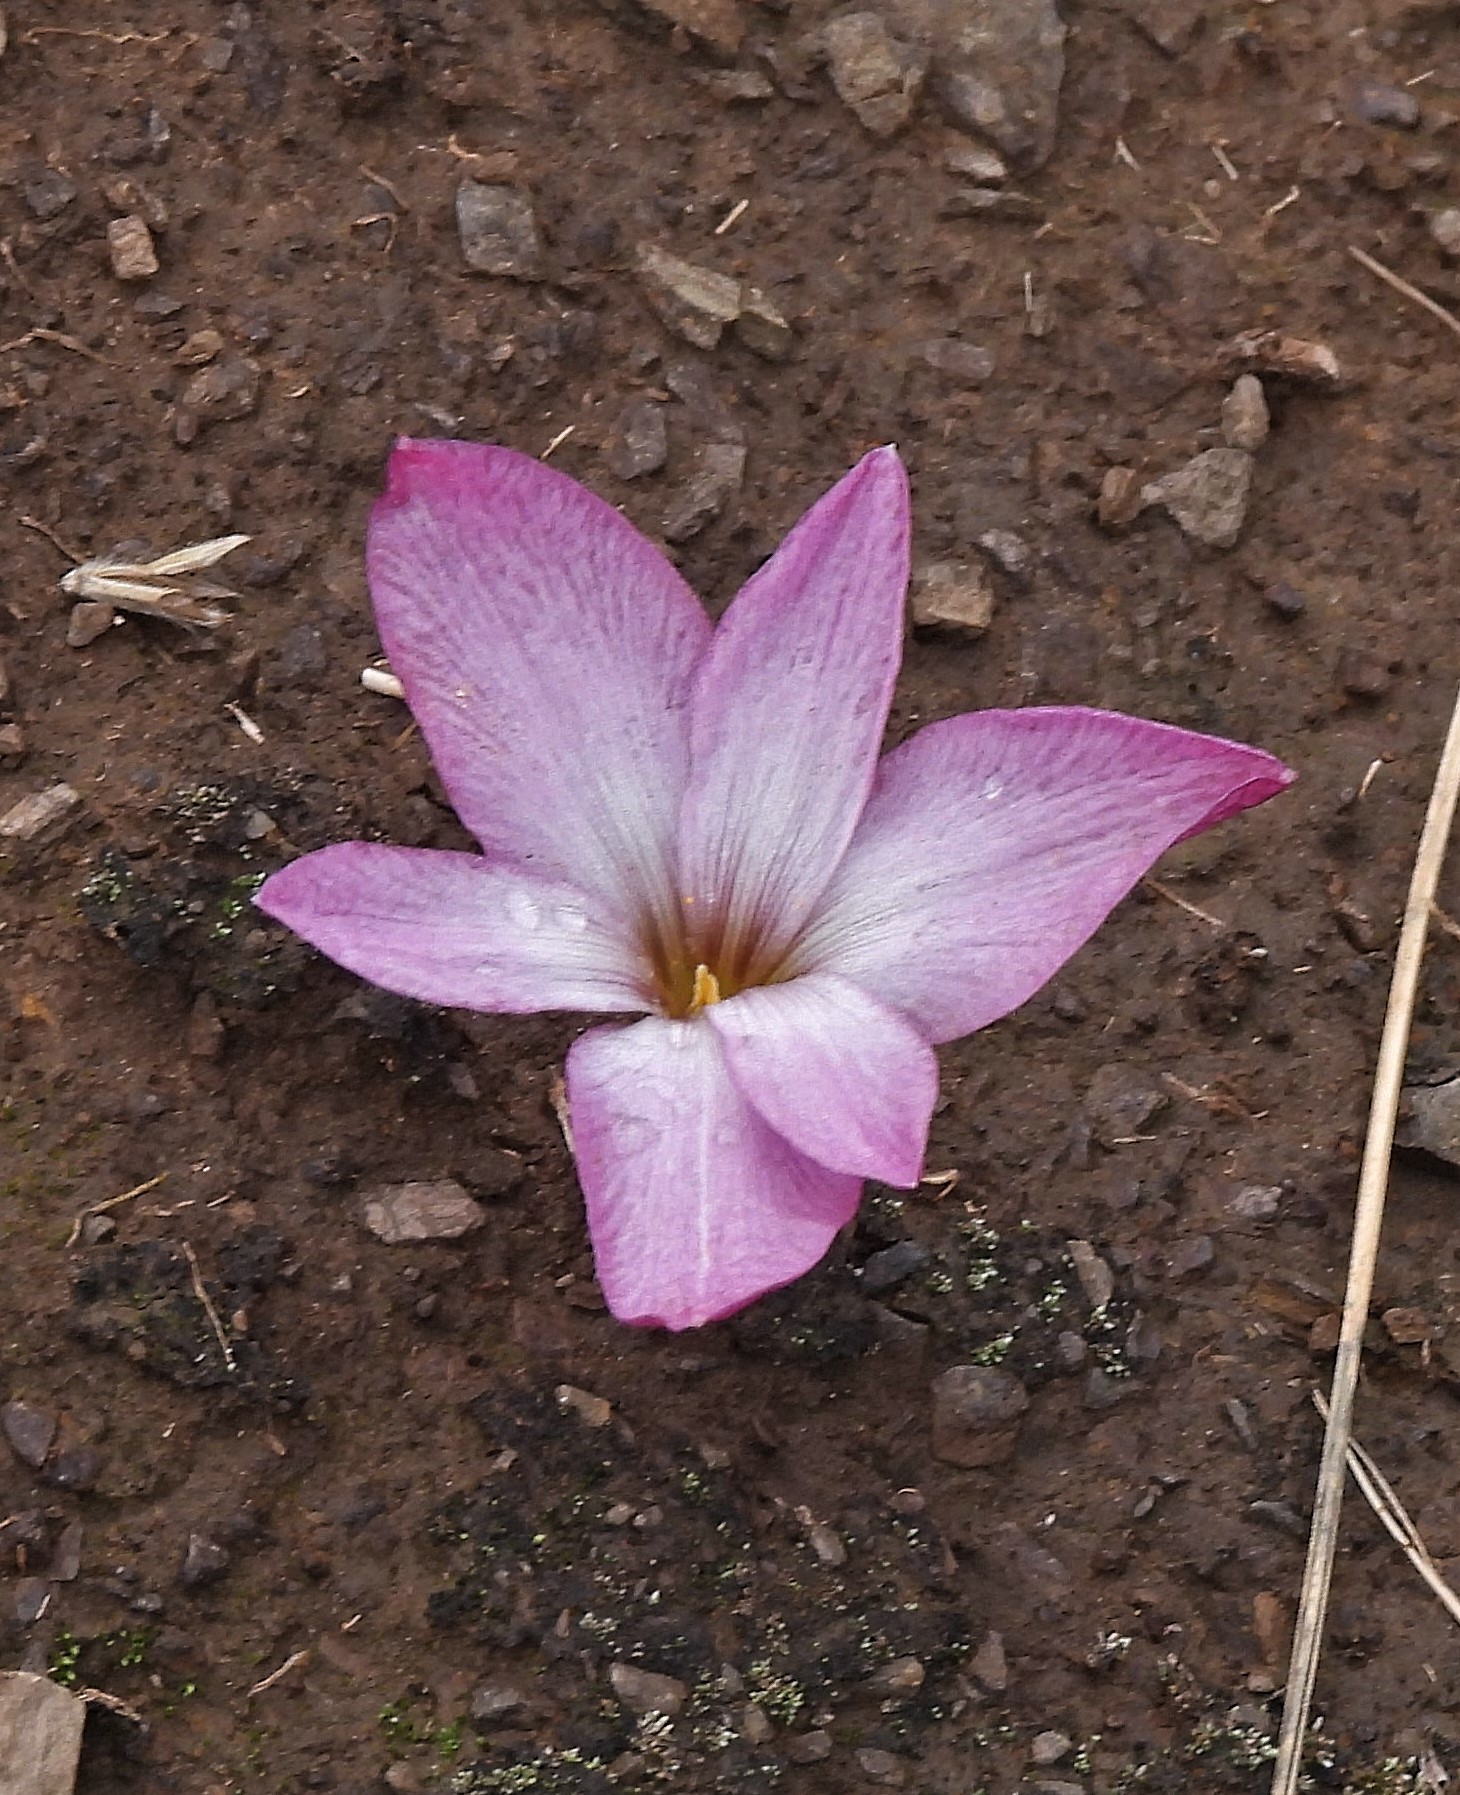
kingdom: Plantae
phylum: Tracheophyta
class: Liliopsida
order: Asparagales
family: Amaryllidaceae
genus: Zephyranthes
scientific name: Zephyranthes andina
